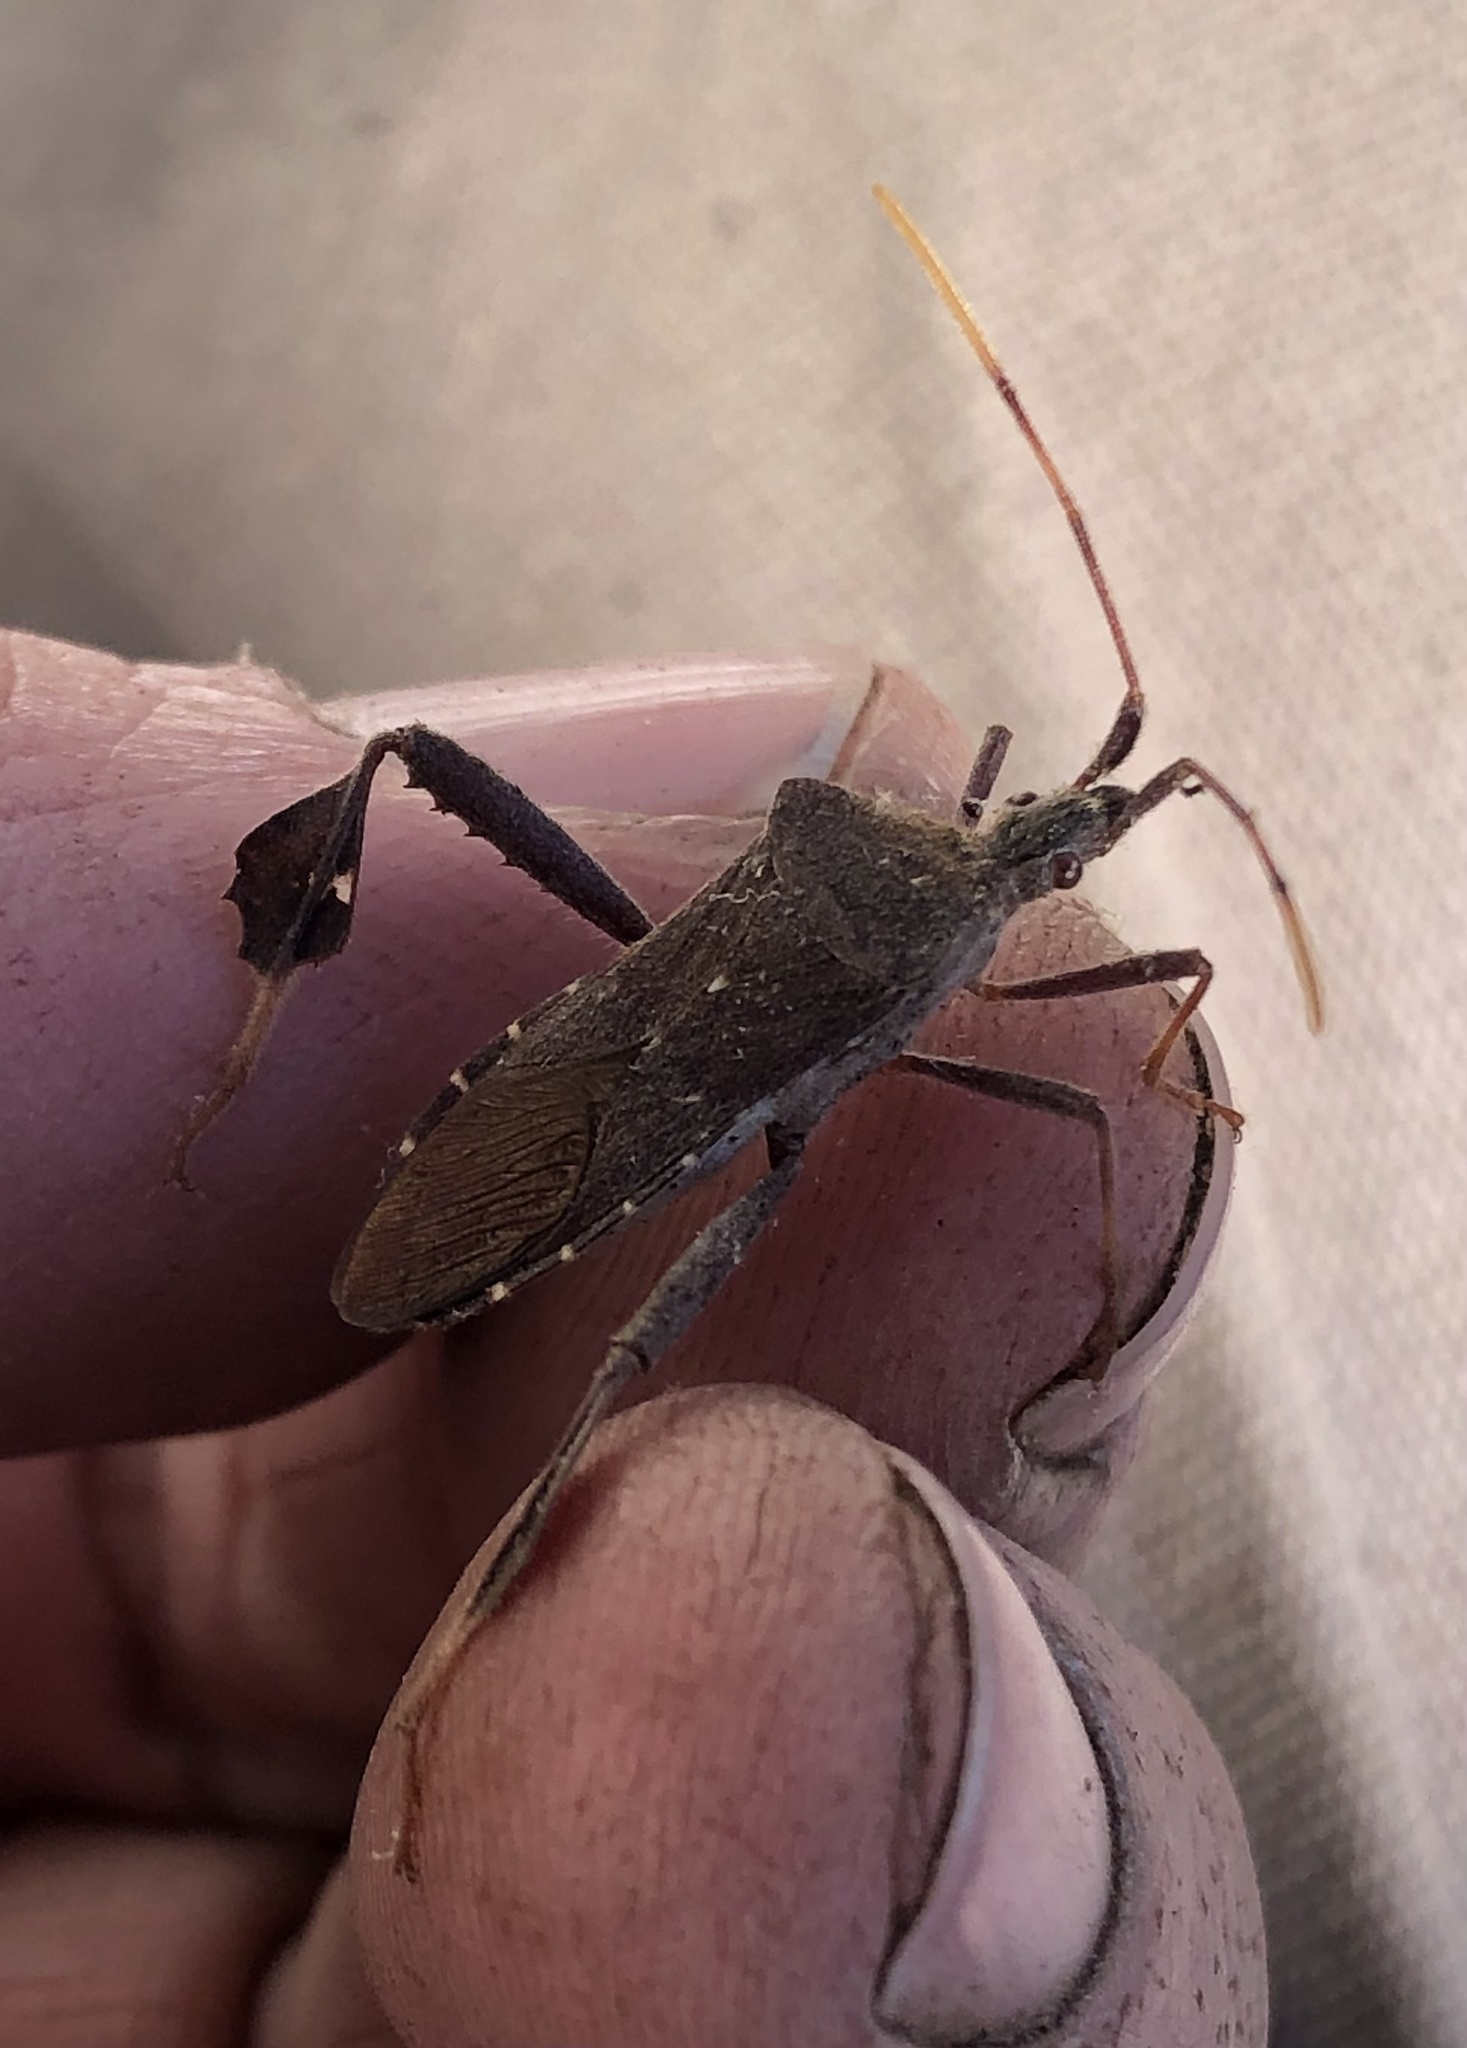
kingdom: Animalia
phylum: Arthropoda
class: Insecta
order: Hemiptera
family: Coreidae
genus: Leptoglossus
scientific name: Leptoglossus oppositus
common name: Northern leaf-footed bug
